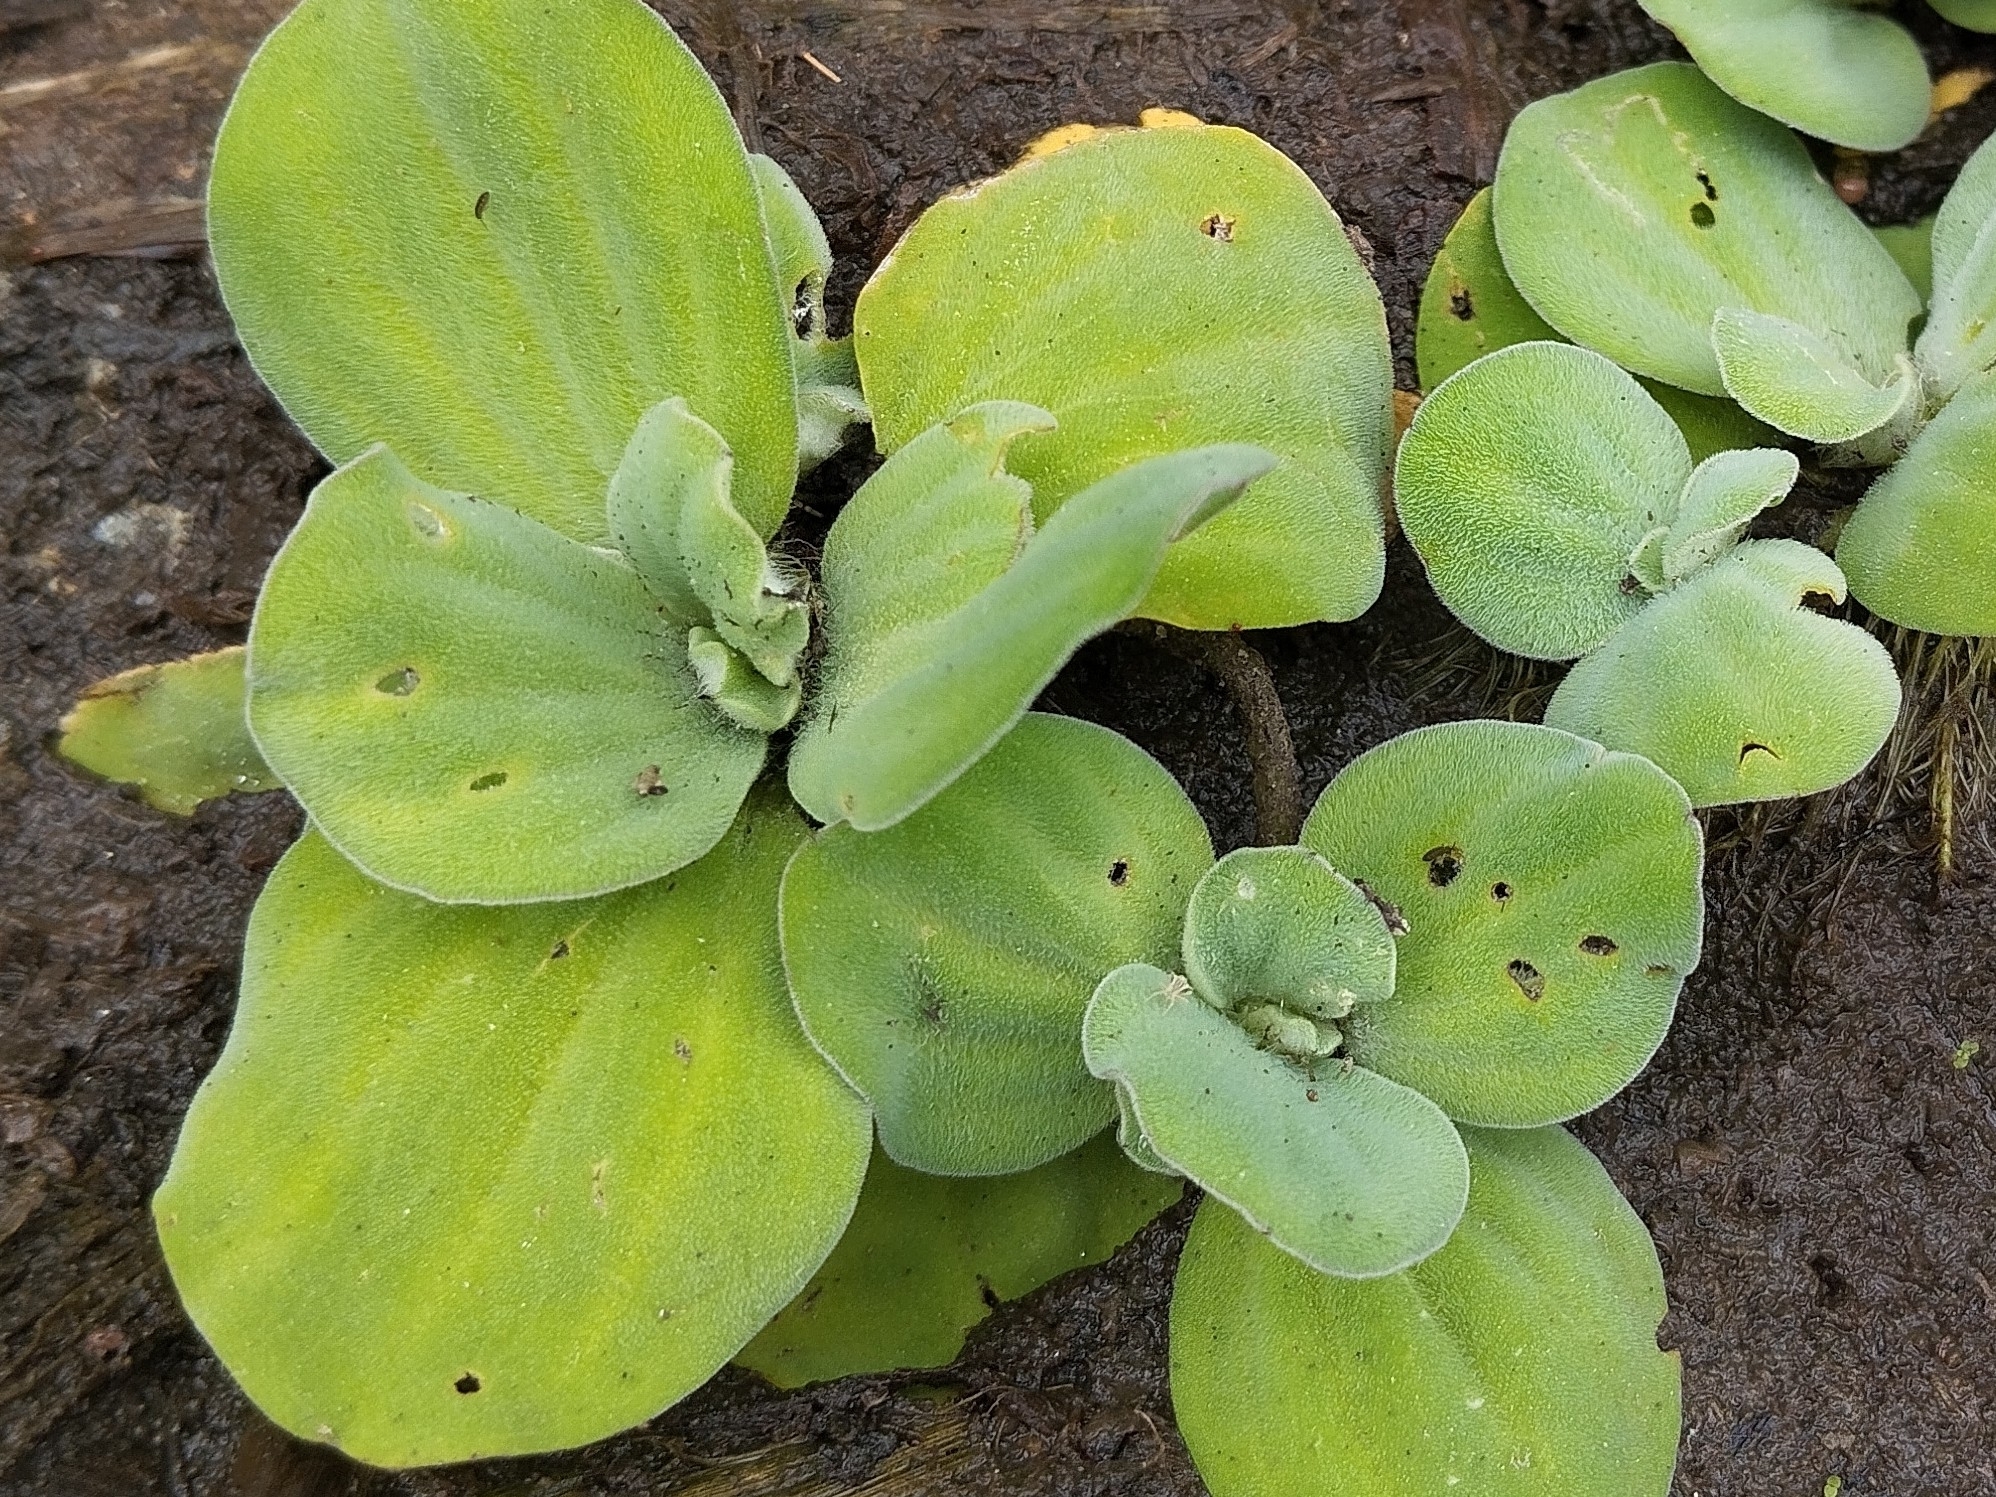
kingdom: Plantae
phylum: Tracheophyta
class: Liliopsida
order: Alismatales
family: Araceae
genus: Pistia
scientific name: Pistia stratiotes
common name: Water lettuce
